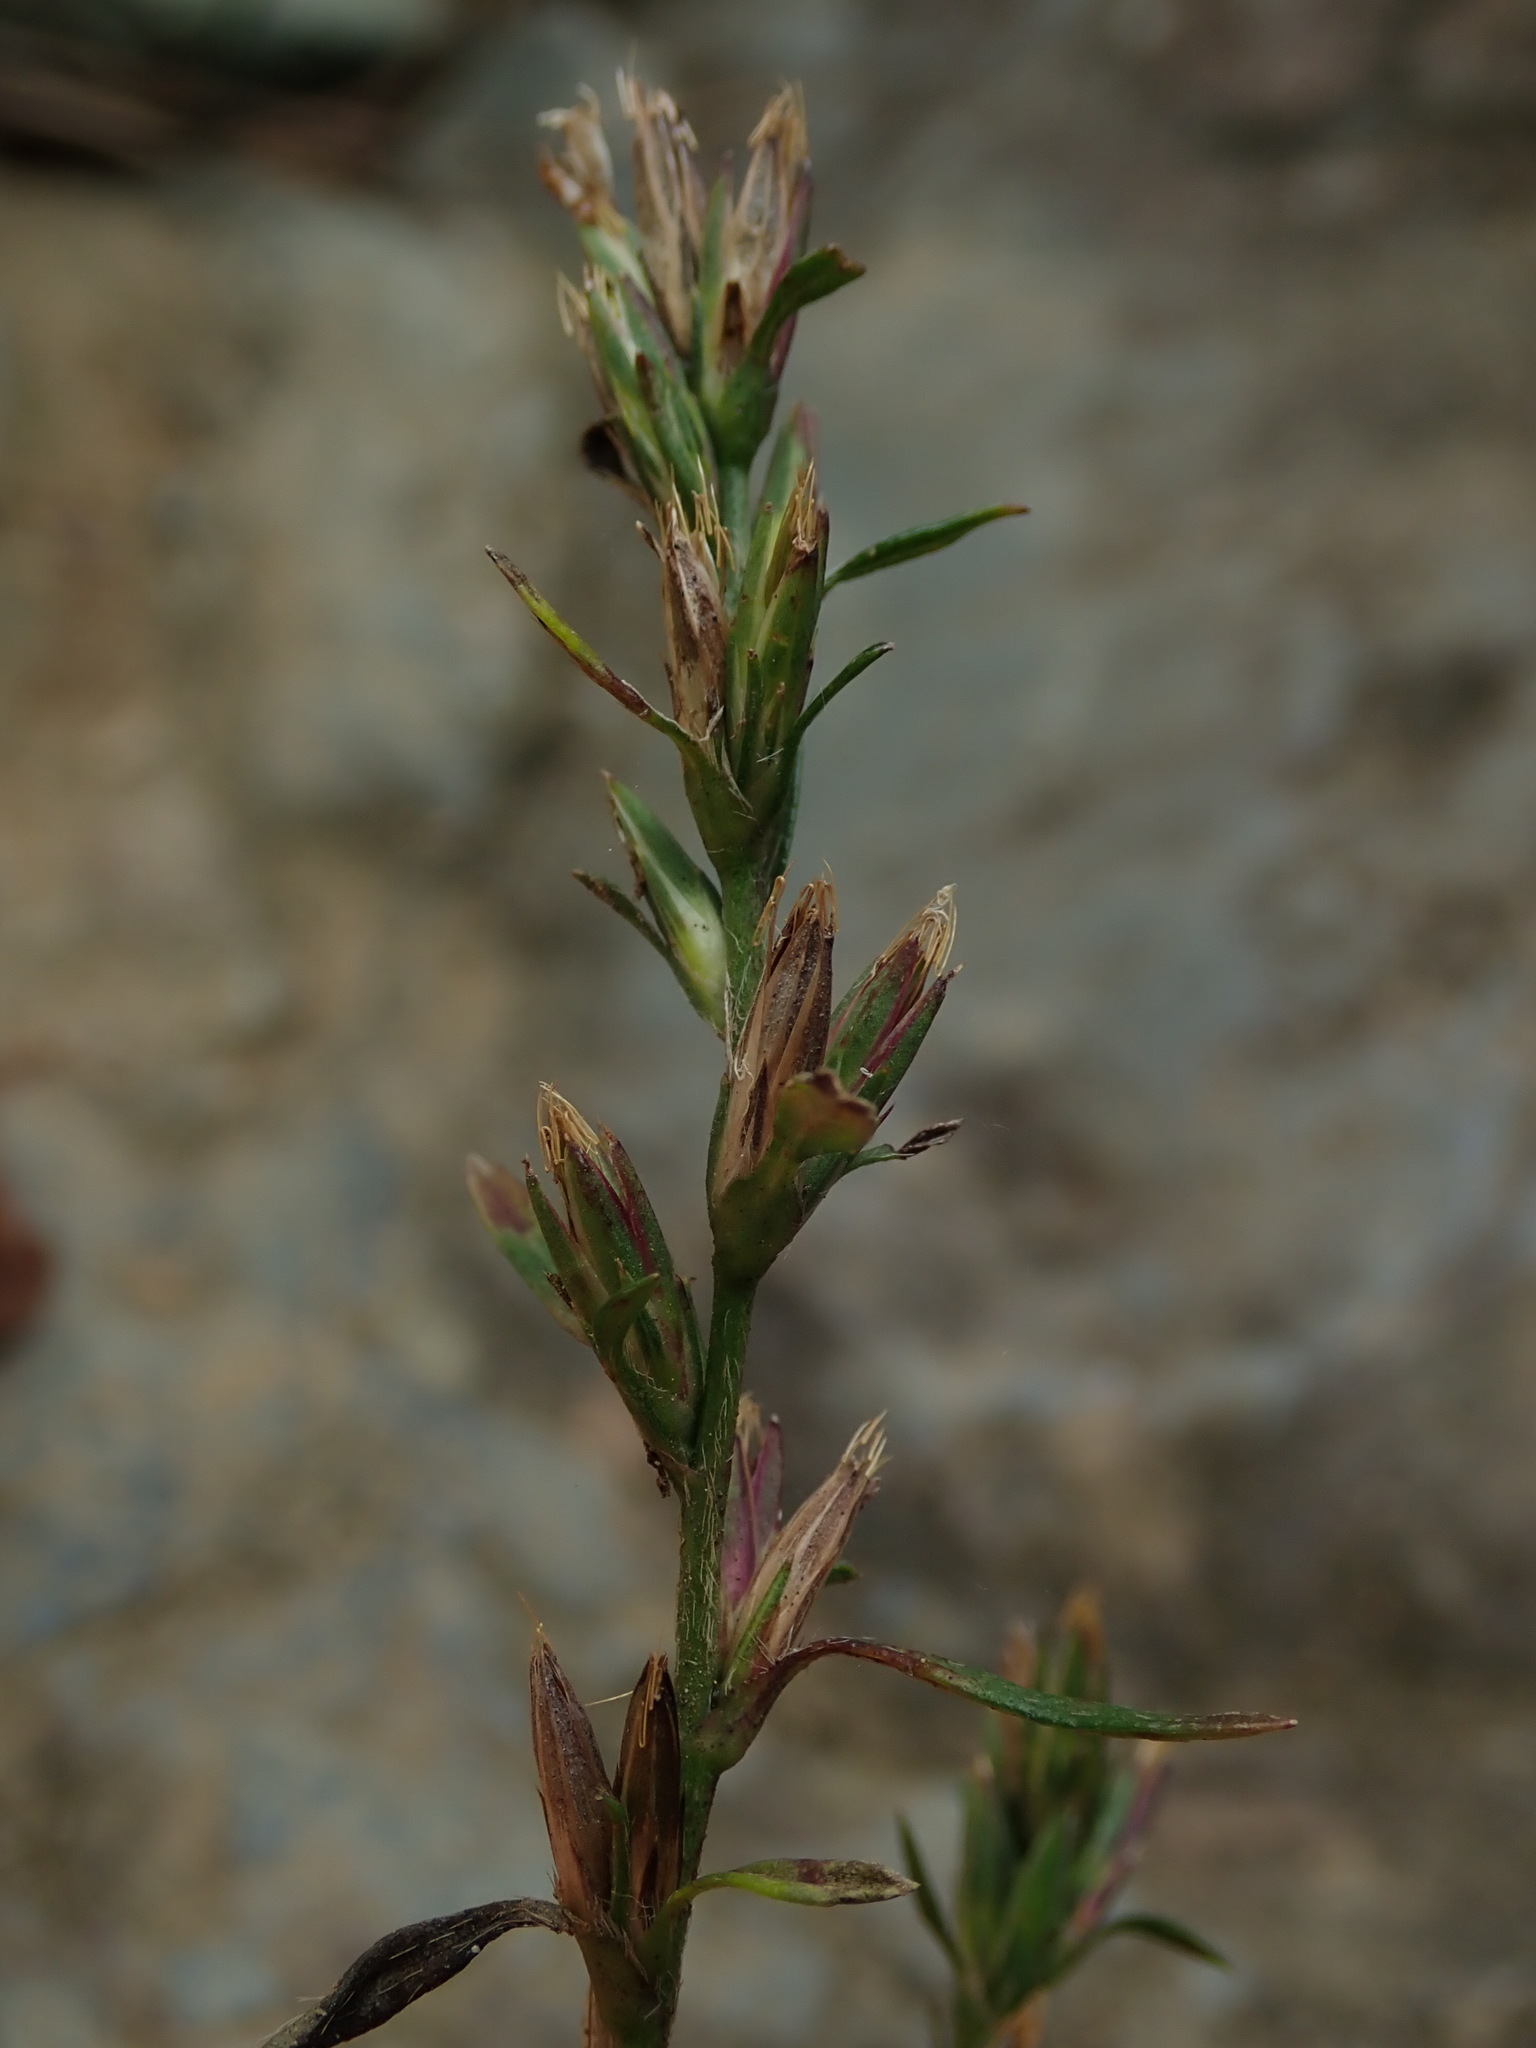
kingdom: Plantae
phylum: Tracheophyta
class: Magnoliopsida
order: Asterales
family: Asteraceae
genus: Pseudelephantopus
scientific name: Pseudelephantopus spicatus
